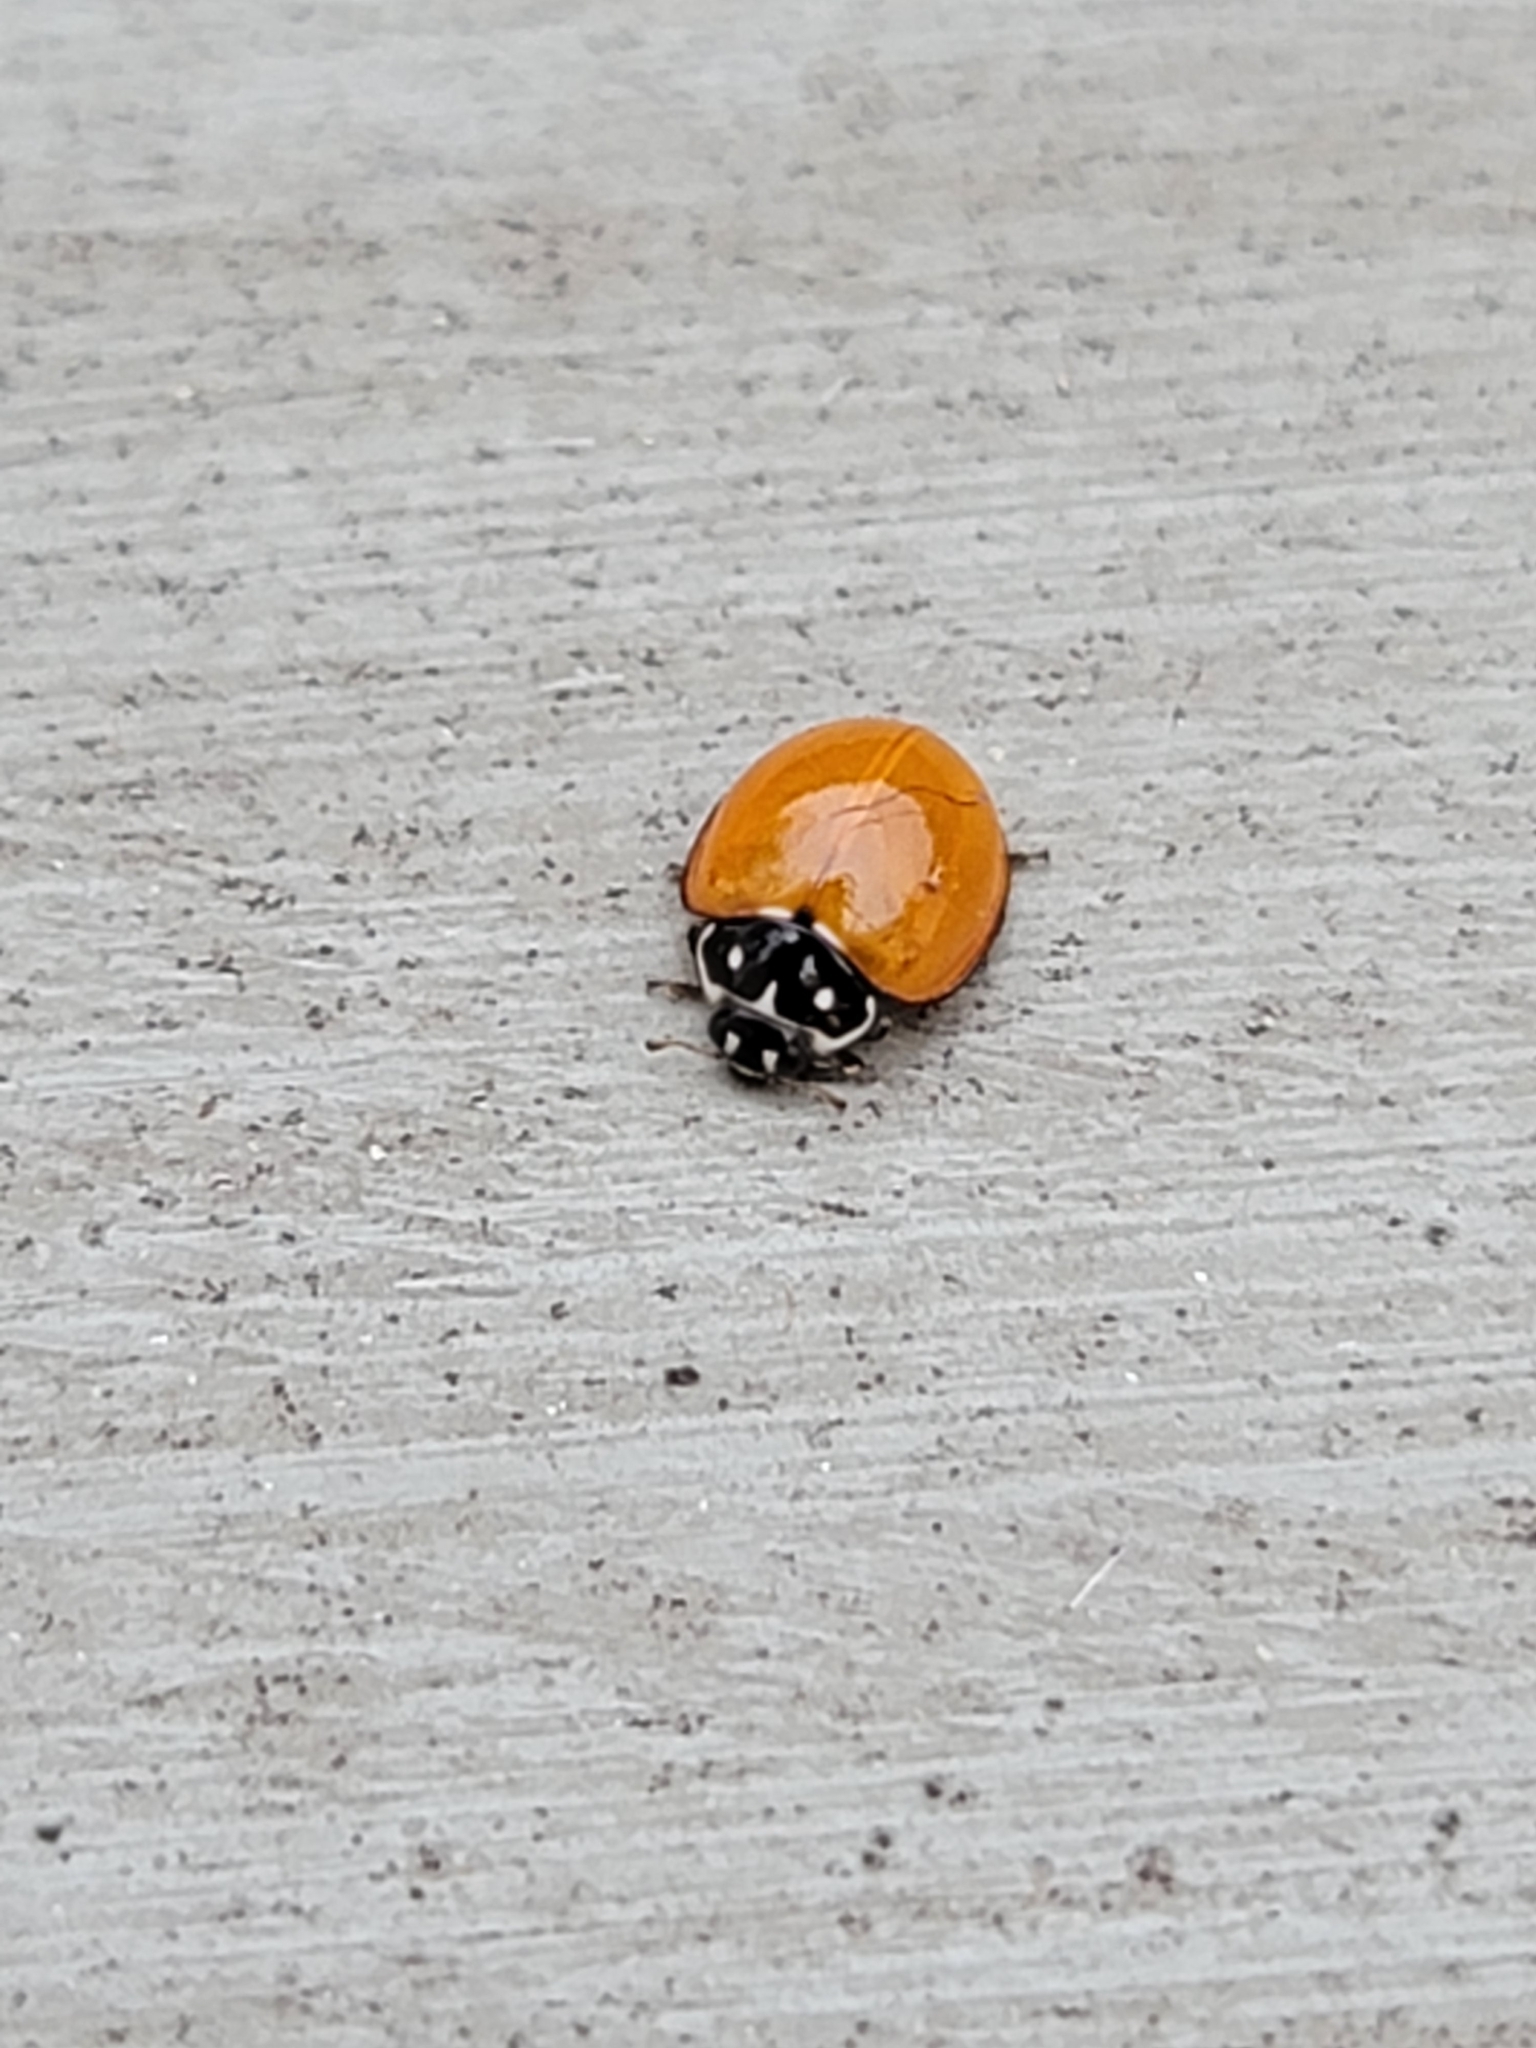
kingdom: Animalia
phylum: Arthropoda
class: Insecta
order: Coleoptera
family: Coccinellidae
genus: Cycloneda
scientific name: Cycloneda sanguinea
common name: Ladybird beetle
